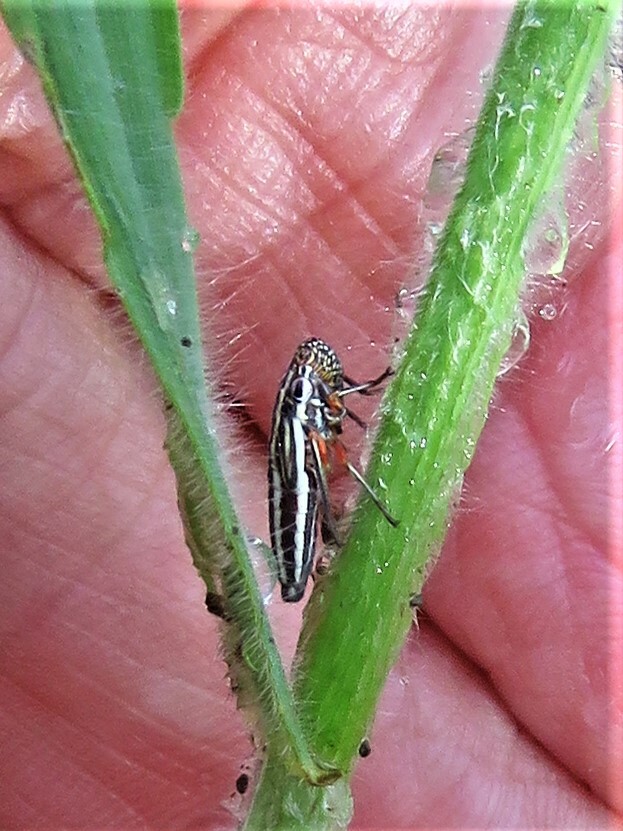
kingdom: Animalia
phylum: Arthropoda
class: Insecta
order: Hemiptera
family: Cicadellidae
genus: Cuerna
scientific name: Cuerna costalis
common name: Lateral-lined sharpshooter
